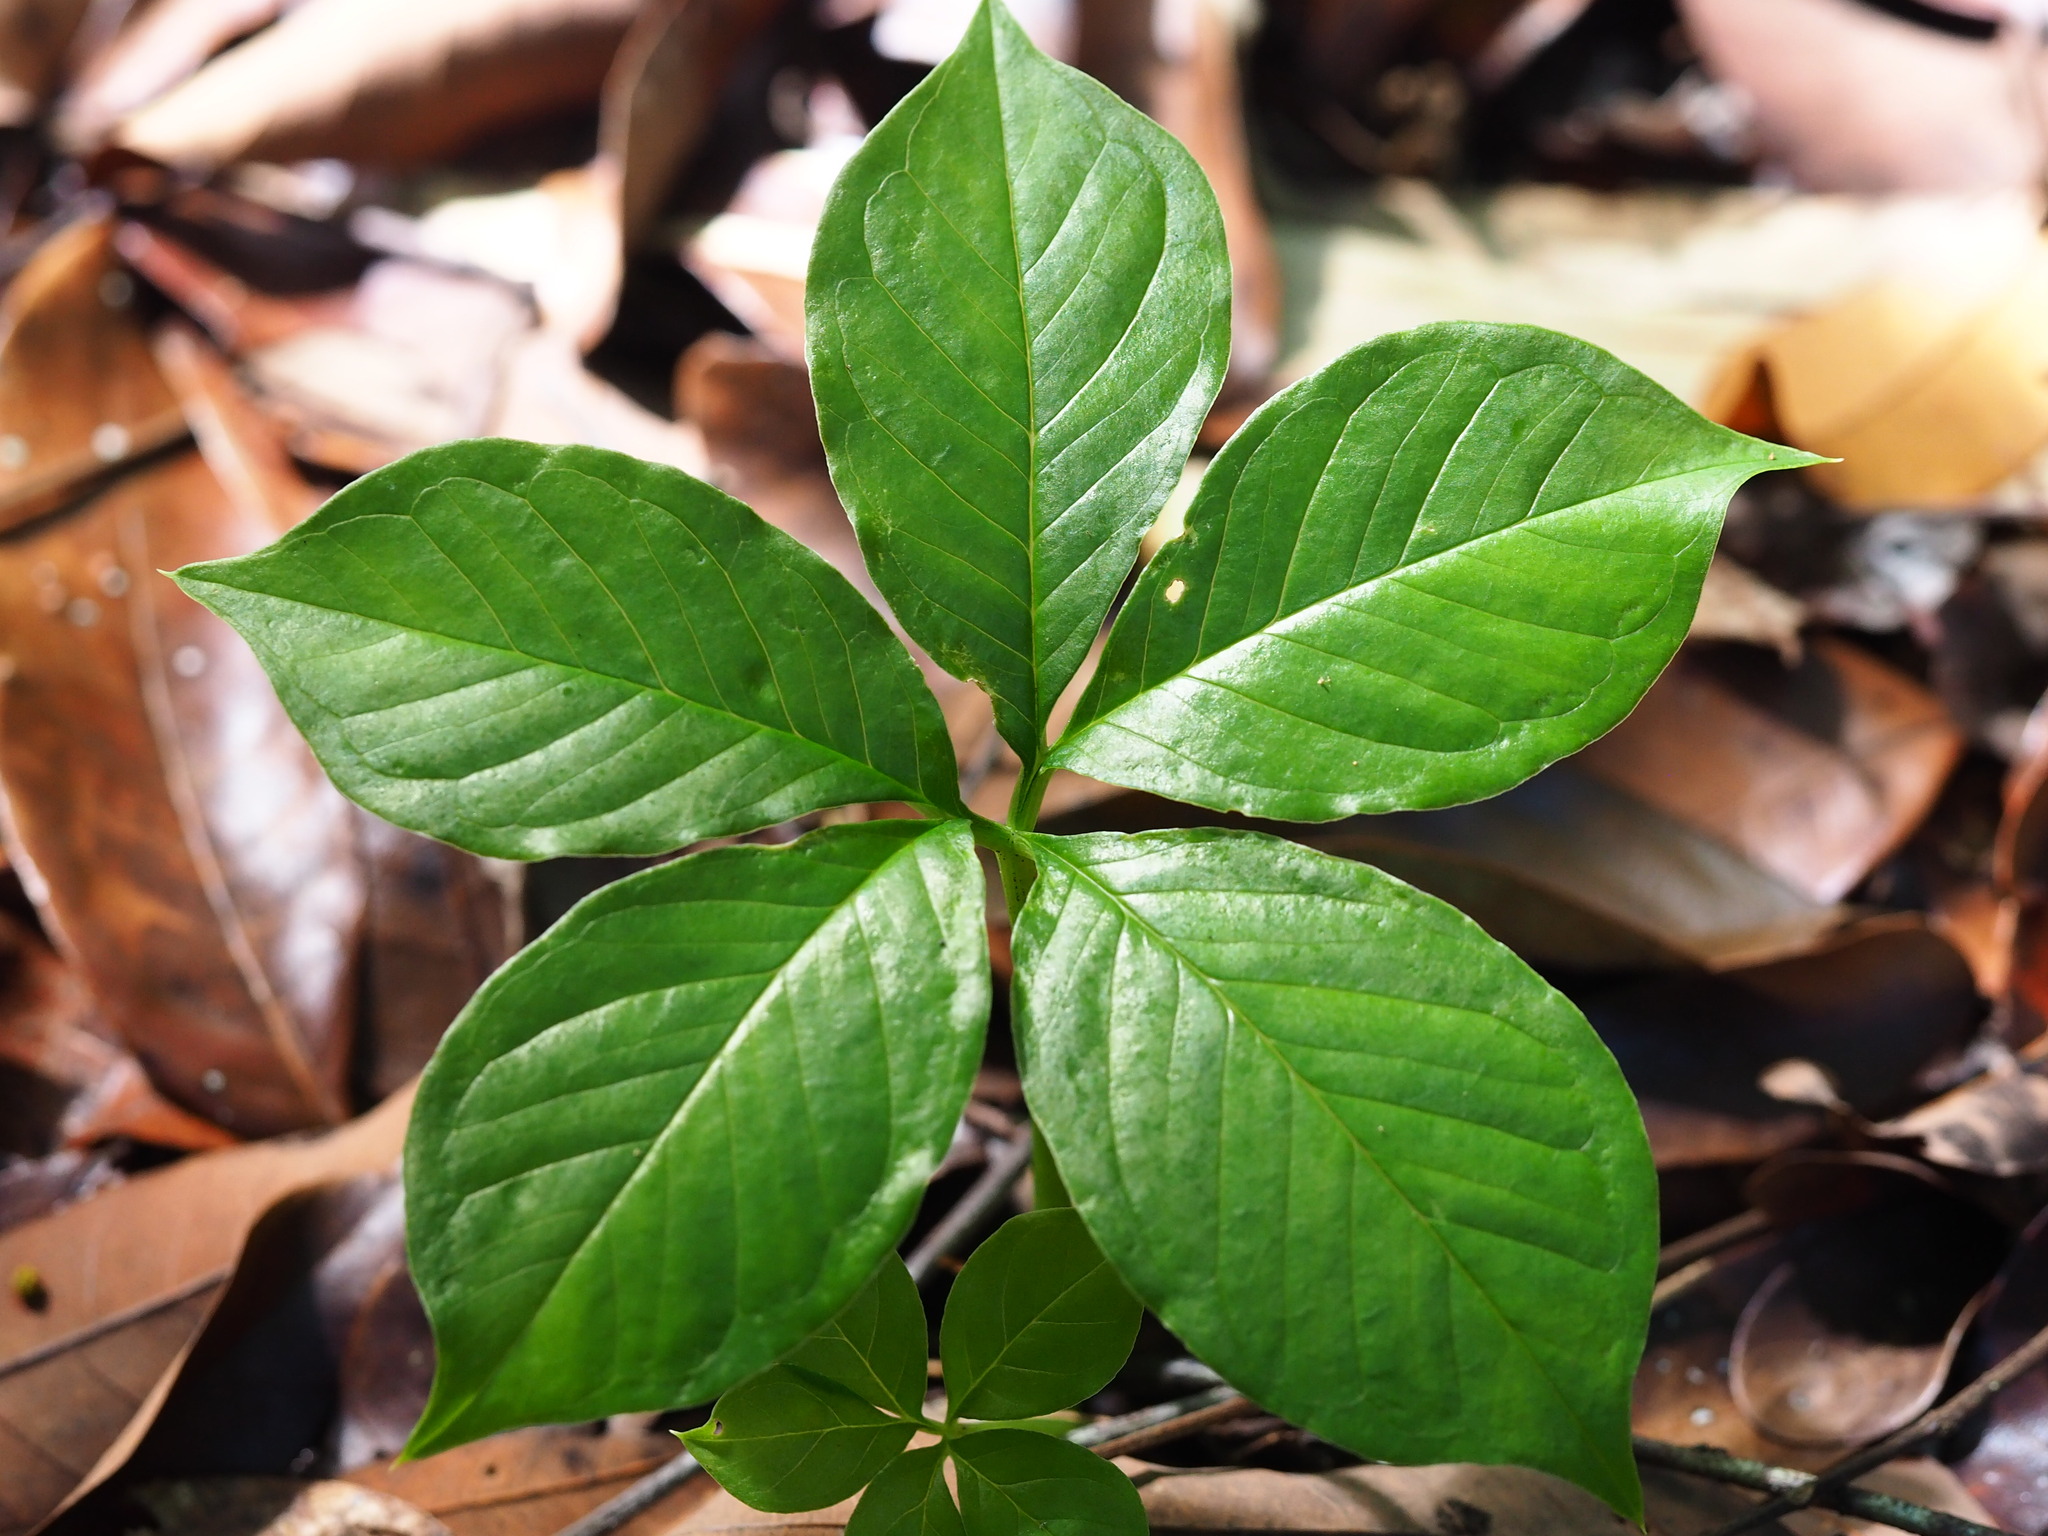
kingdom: Plantae
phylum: Tracheophyta
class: Liliopsida
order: Alismatales
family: Araceae
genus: Amorphophallus
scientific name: Amorphophallus henryi
